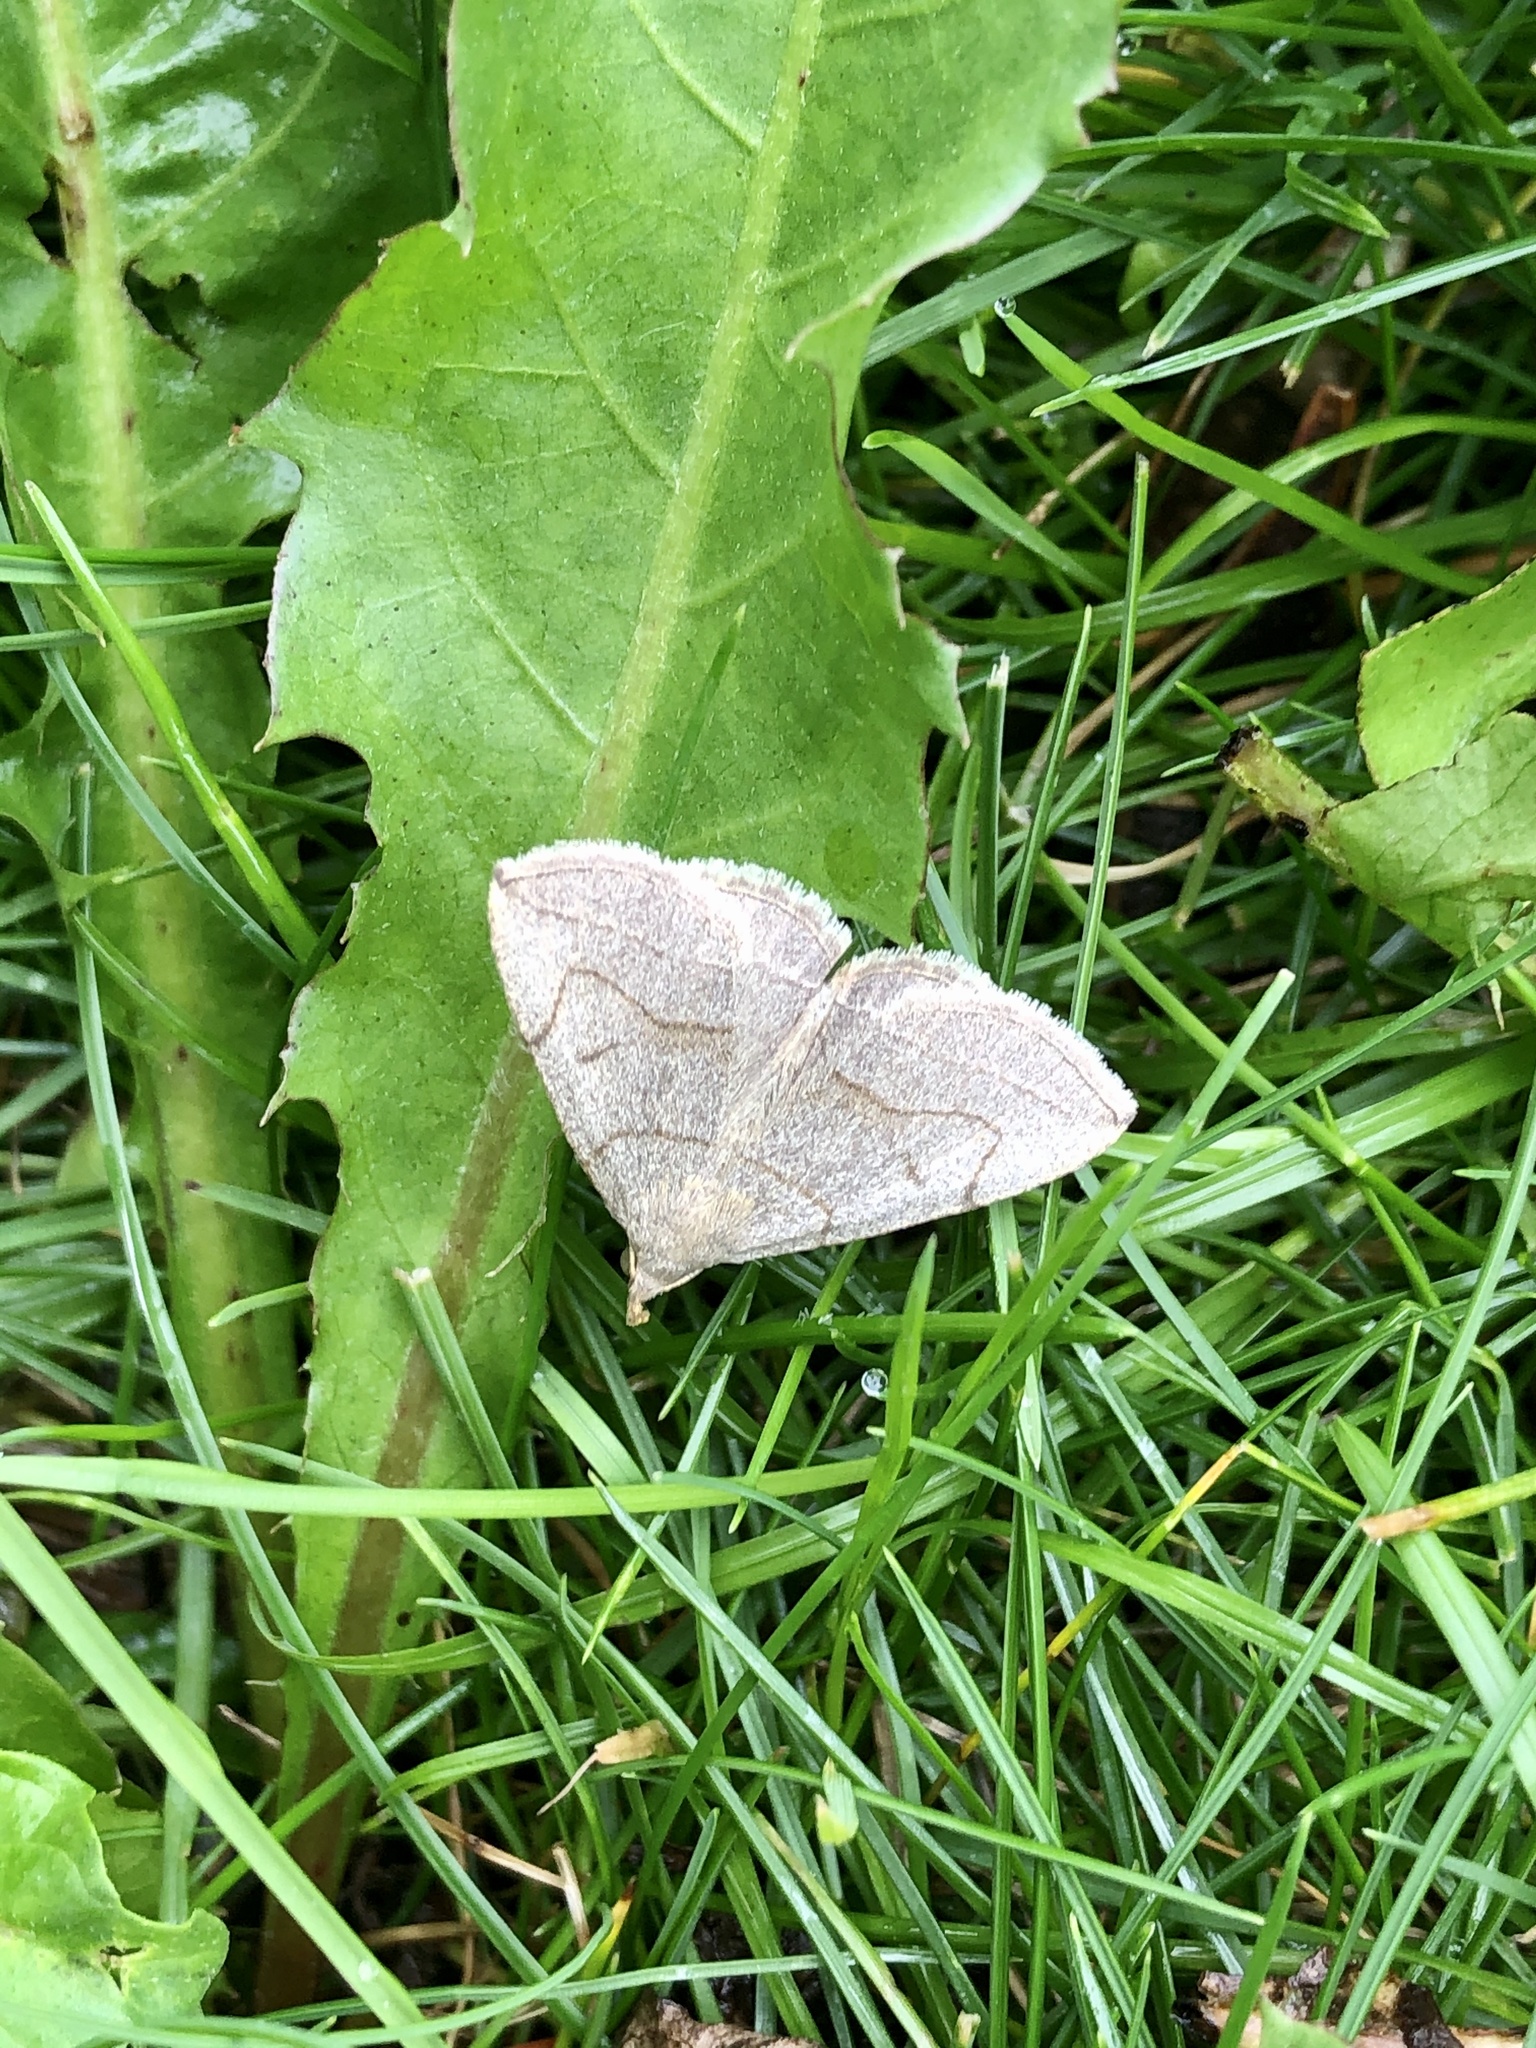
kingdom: Animalia
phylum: Arthropoda
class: Insecta
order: Lepidoptera
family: Erebidae
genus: Zanclognatha
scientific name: Zanclognatha pedipilalis
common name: Grayish fan-foot
